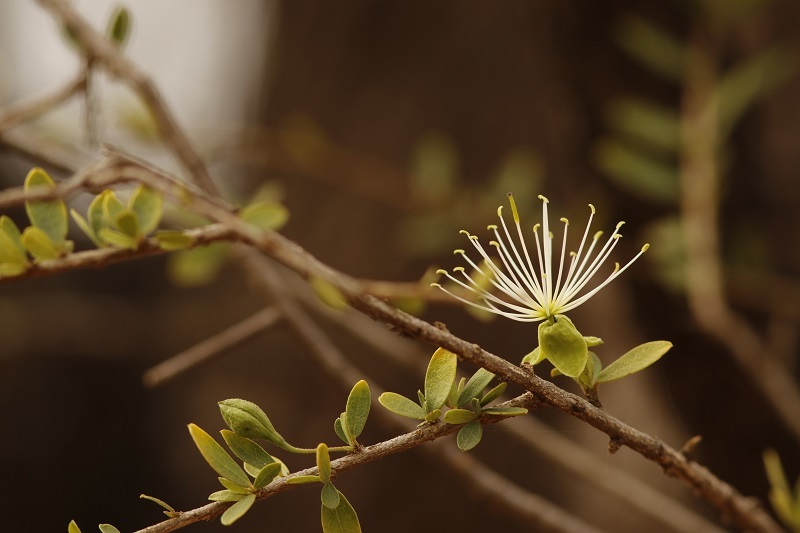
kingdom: Plantae
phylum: Tracheophyta
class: Magnoliopsida
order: Brassicales
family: Capparaceae
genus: Maerua
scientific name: Maerua parvifolia
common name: Dwarf bush-cherry
